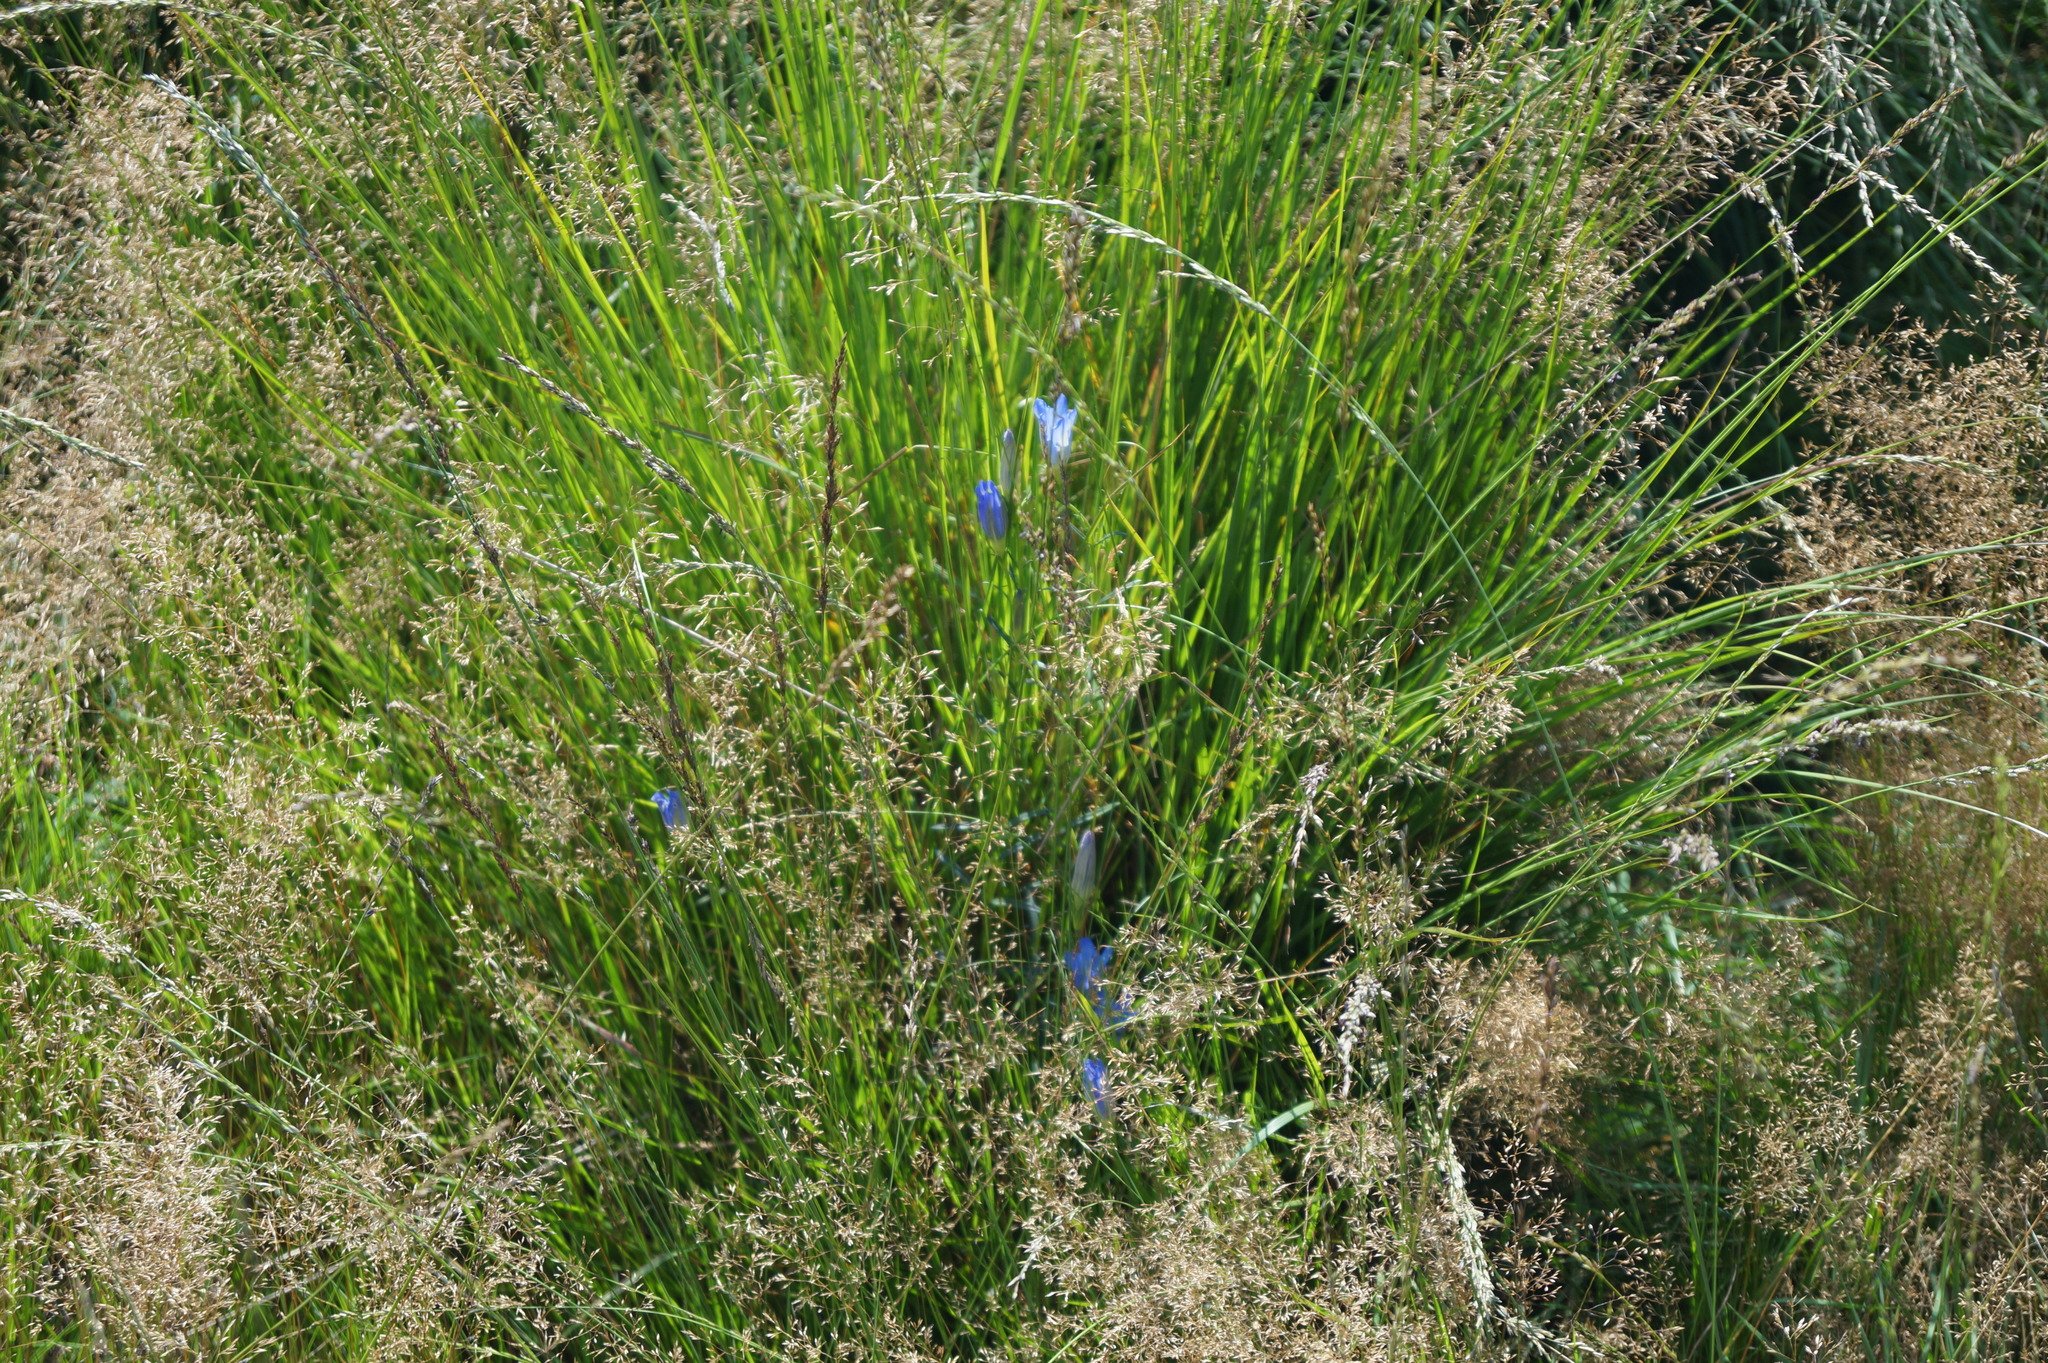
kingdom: Plantae
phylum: Tracheophyta
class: Magnoliopsida
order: Gentianales
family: Gentianaceae
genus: Gentiana
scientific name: Gentiana pneumonanthe
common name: Marsh gentian
